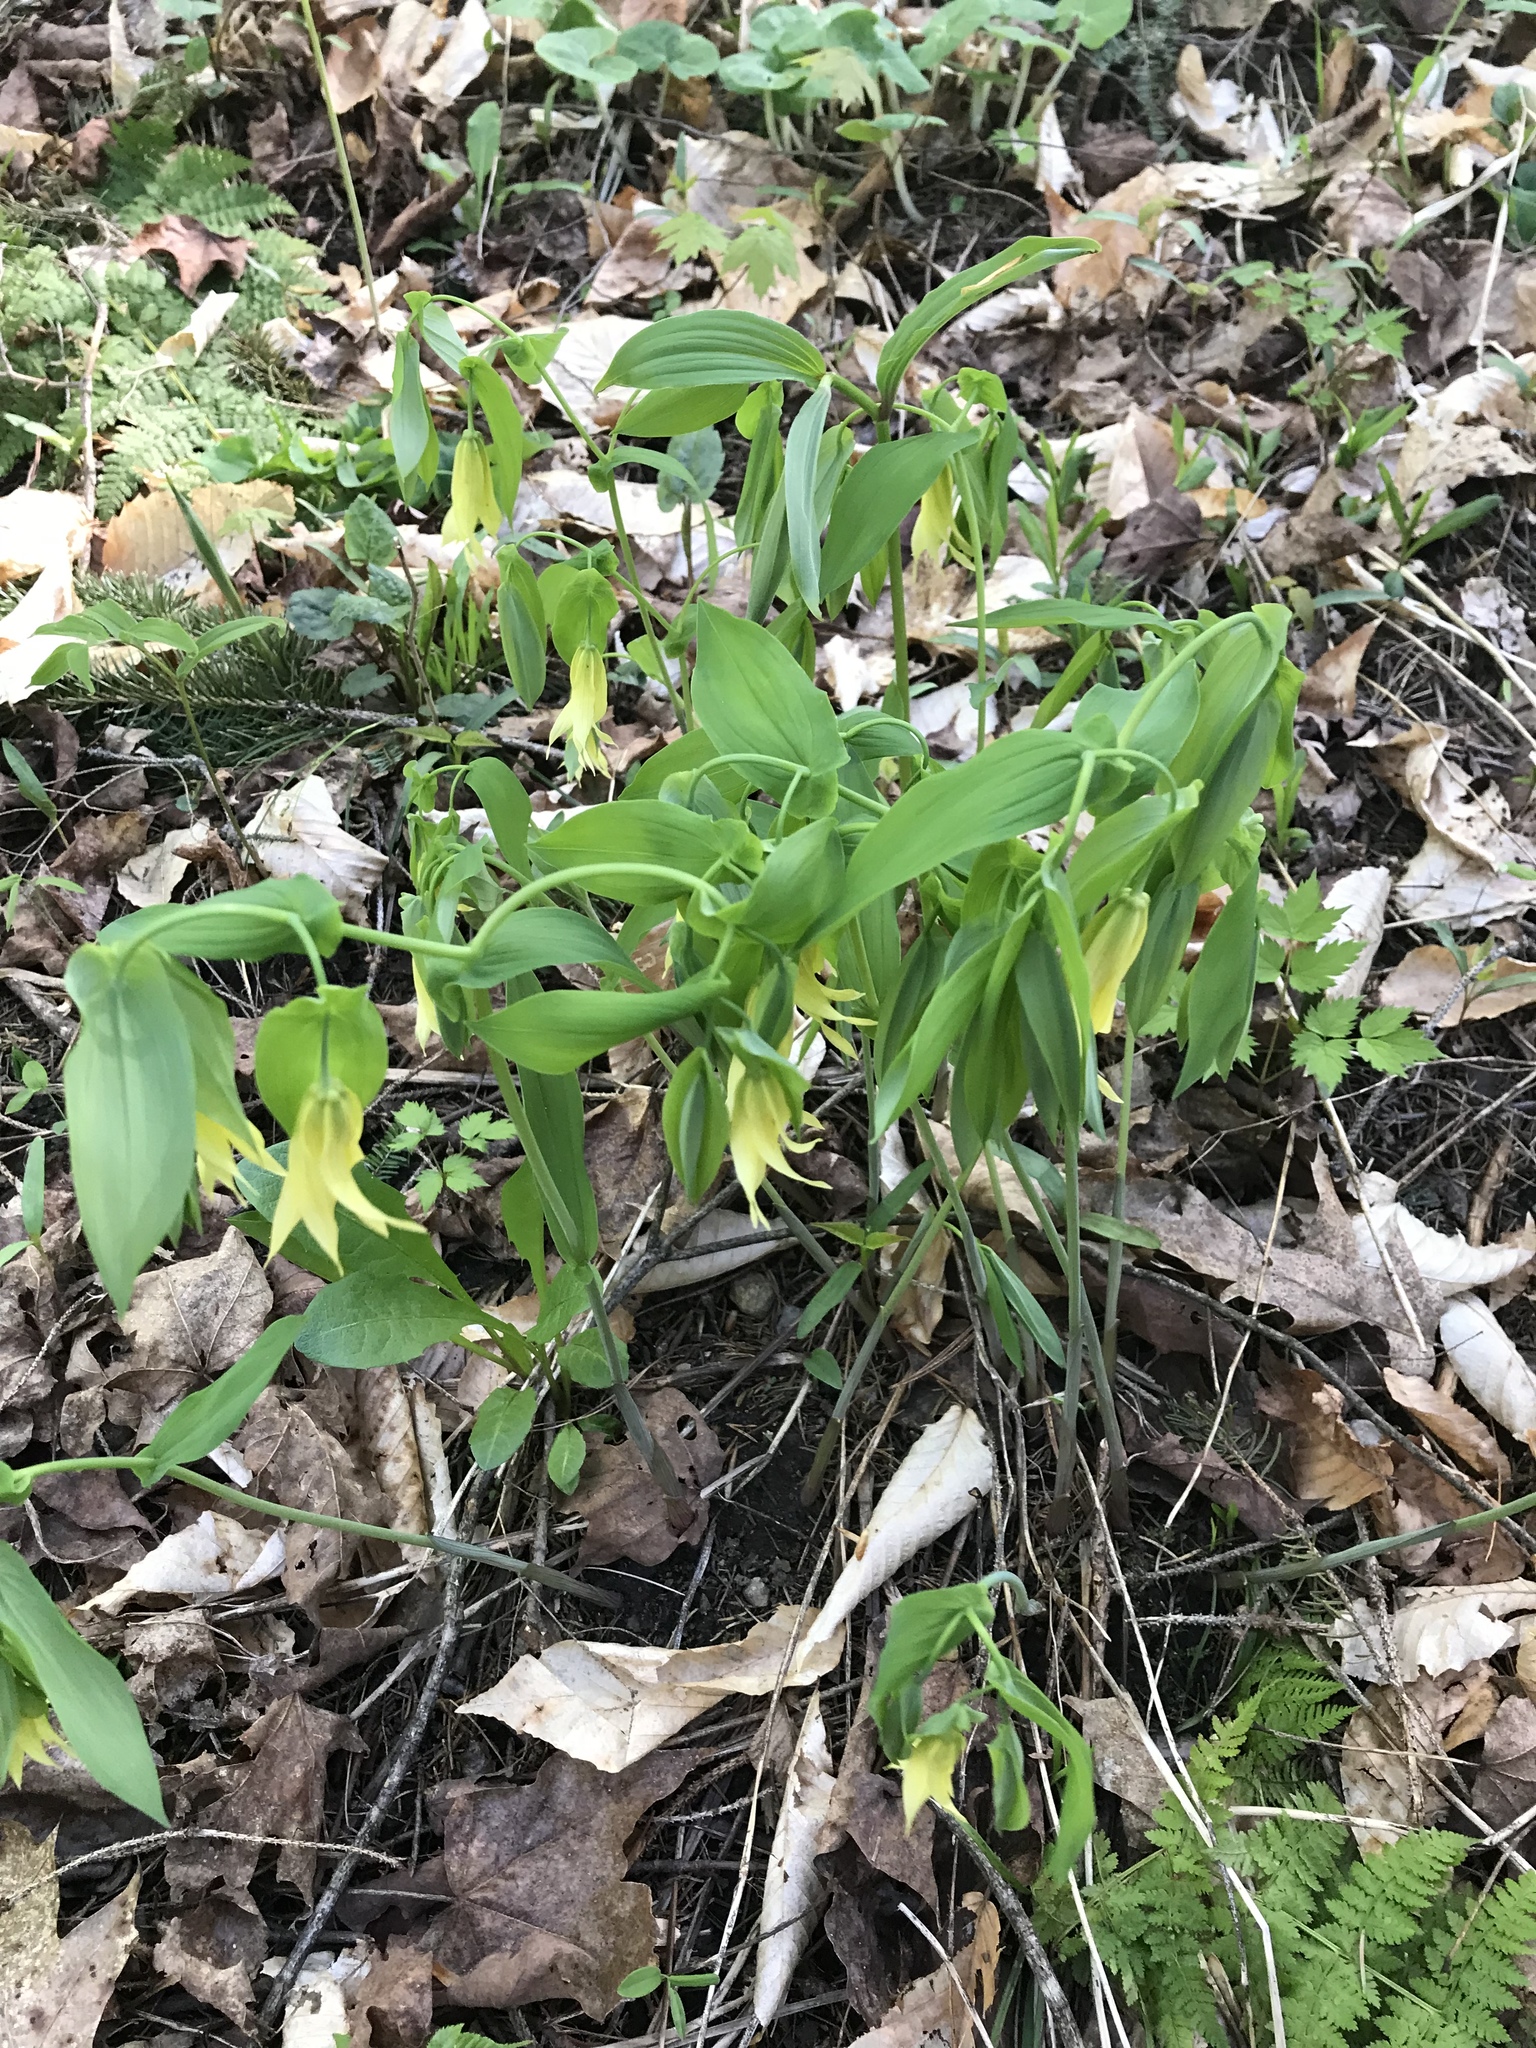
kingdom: Plantae
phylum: Tracheophyta
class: Liliopsida
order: Liliales
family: Colchicaceae
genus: Uvularia
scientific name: Uvularia grandiflora
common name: Bellwort
